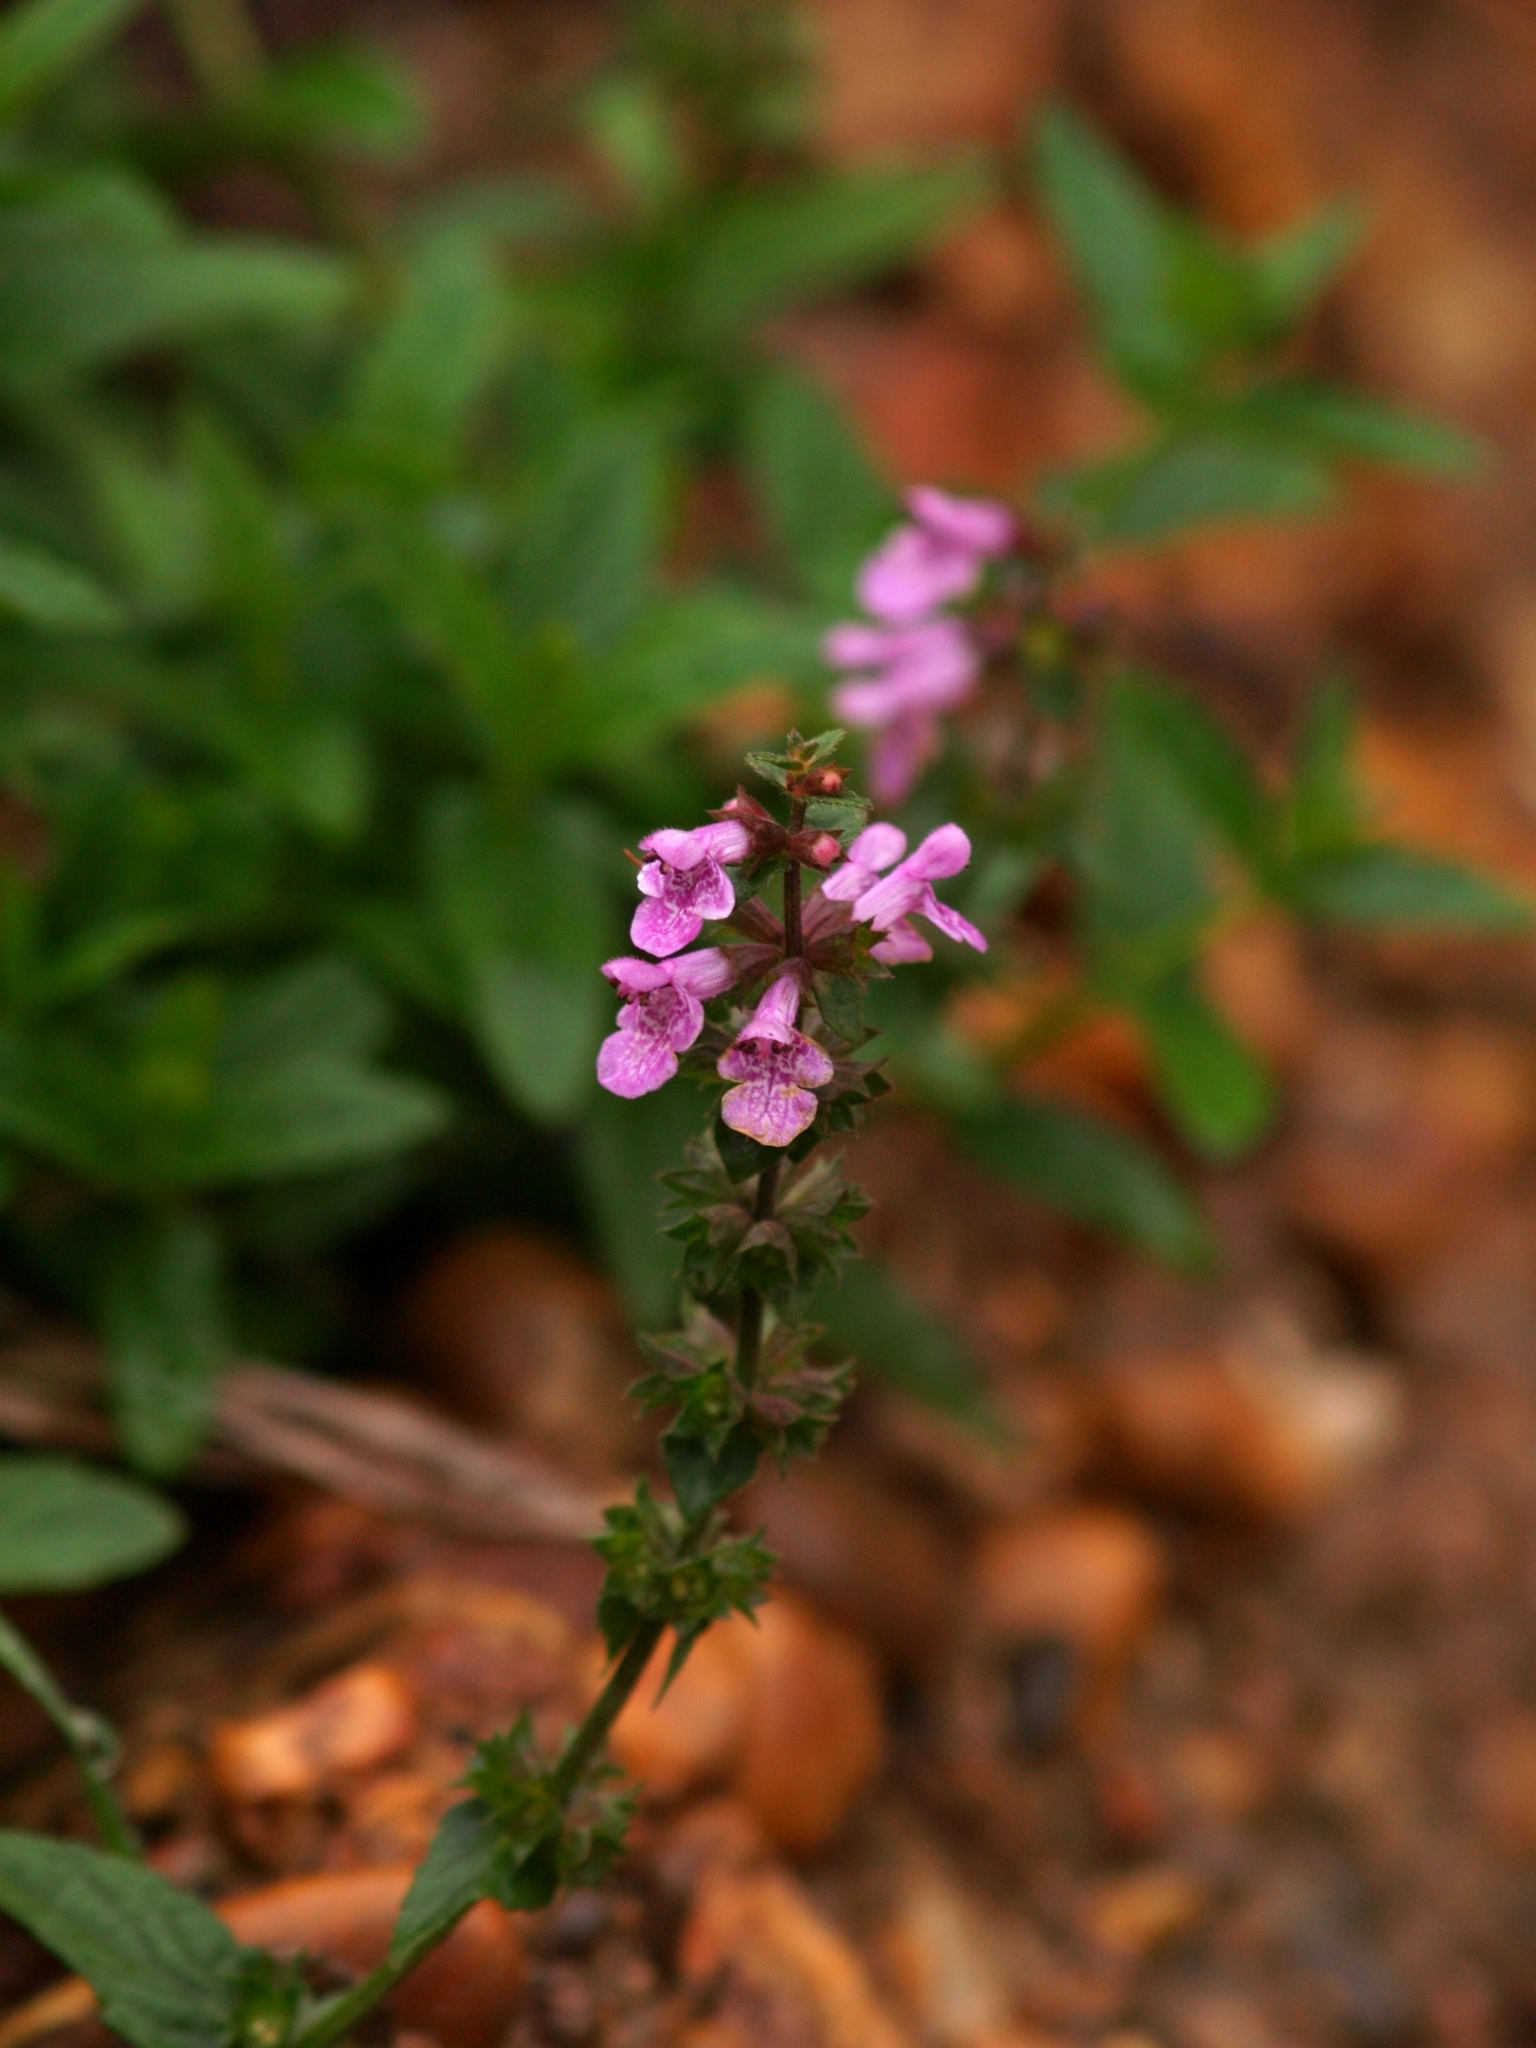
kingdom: Plantae
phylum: Tracheophyta
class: Magnoliopsida
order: Lamiales
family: Lamiaceae
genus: Stachys
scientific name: Stachys palustris
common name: Marsh woundwort
